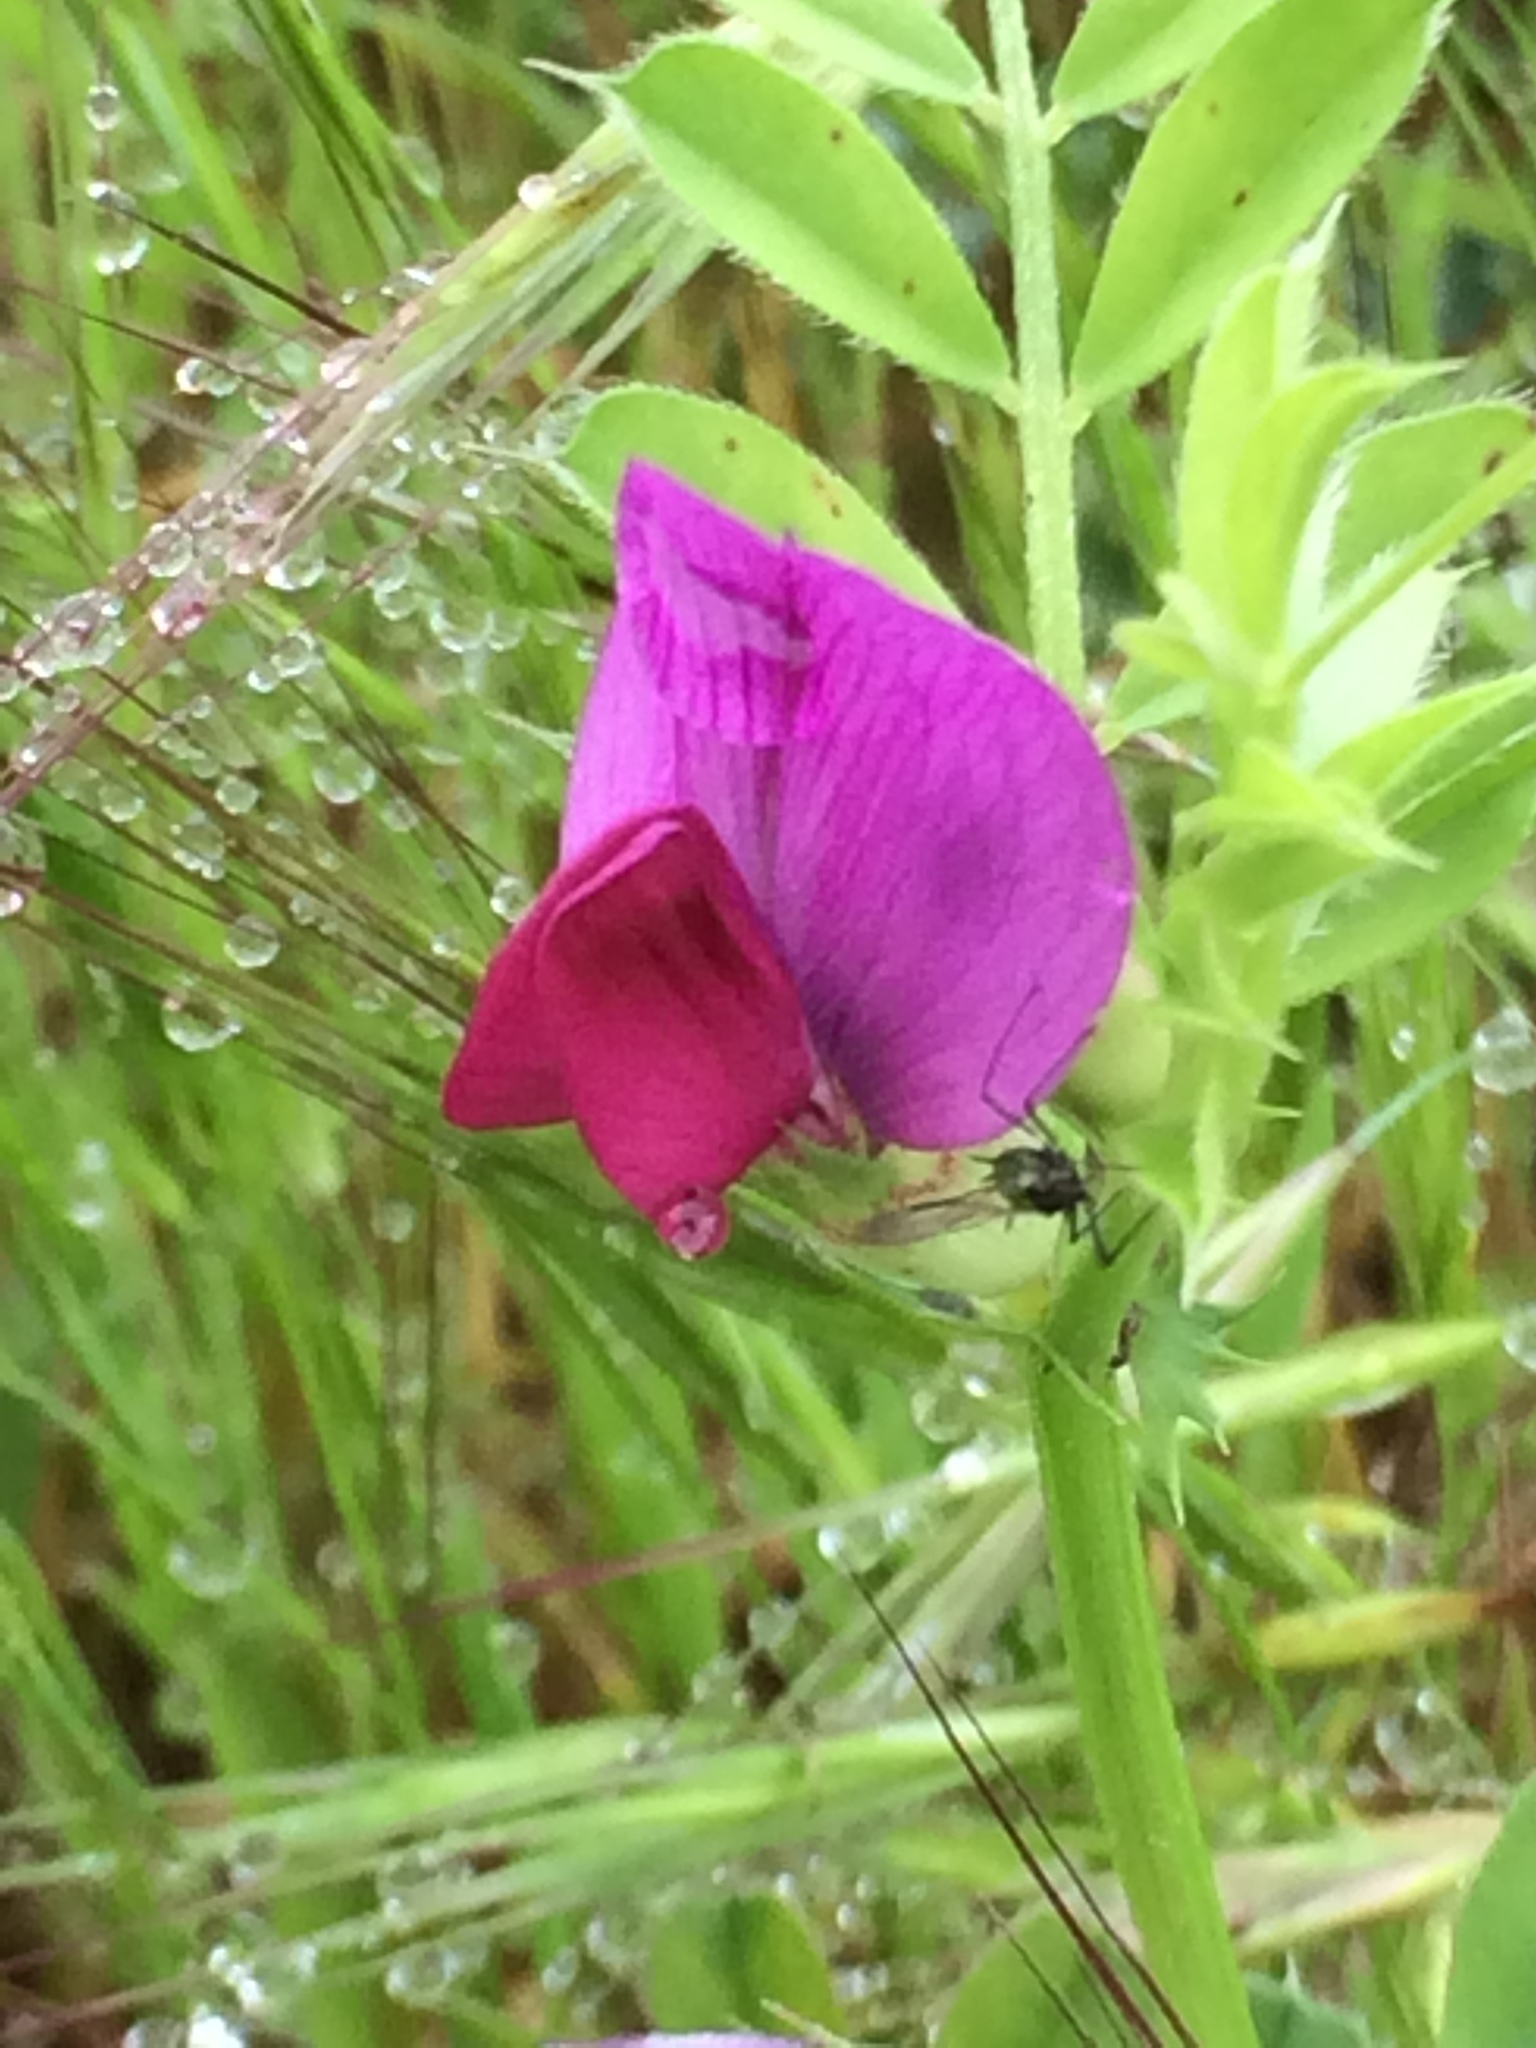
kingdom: Plantae
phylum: Tracheophyta
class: Magnoliopsida
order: Fabales
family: Fabaceae
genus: Vicia
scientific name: Vicia sativa
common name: Garden vetch
